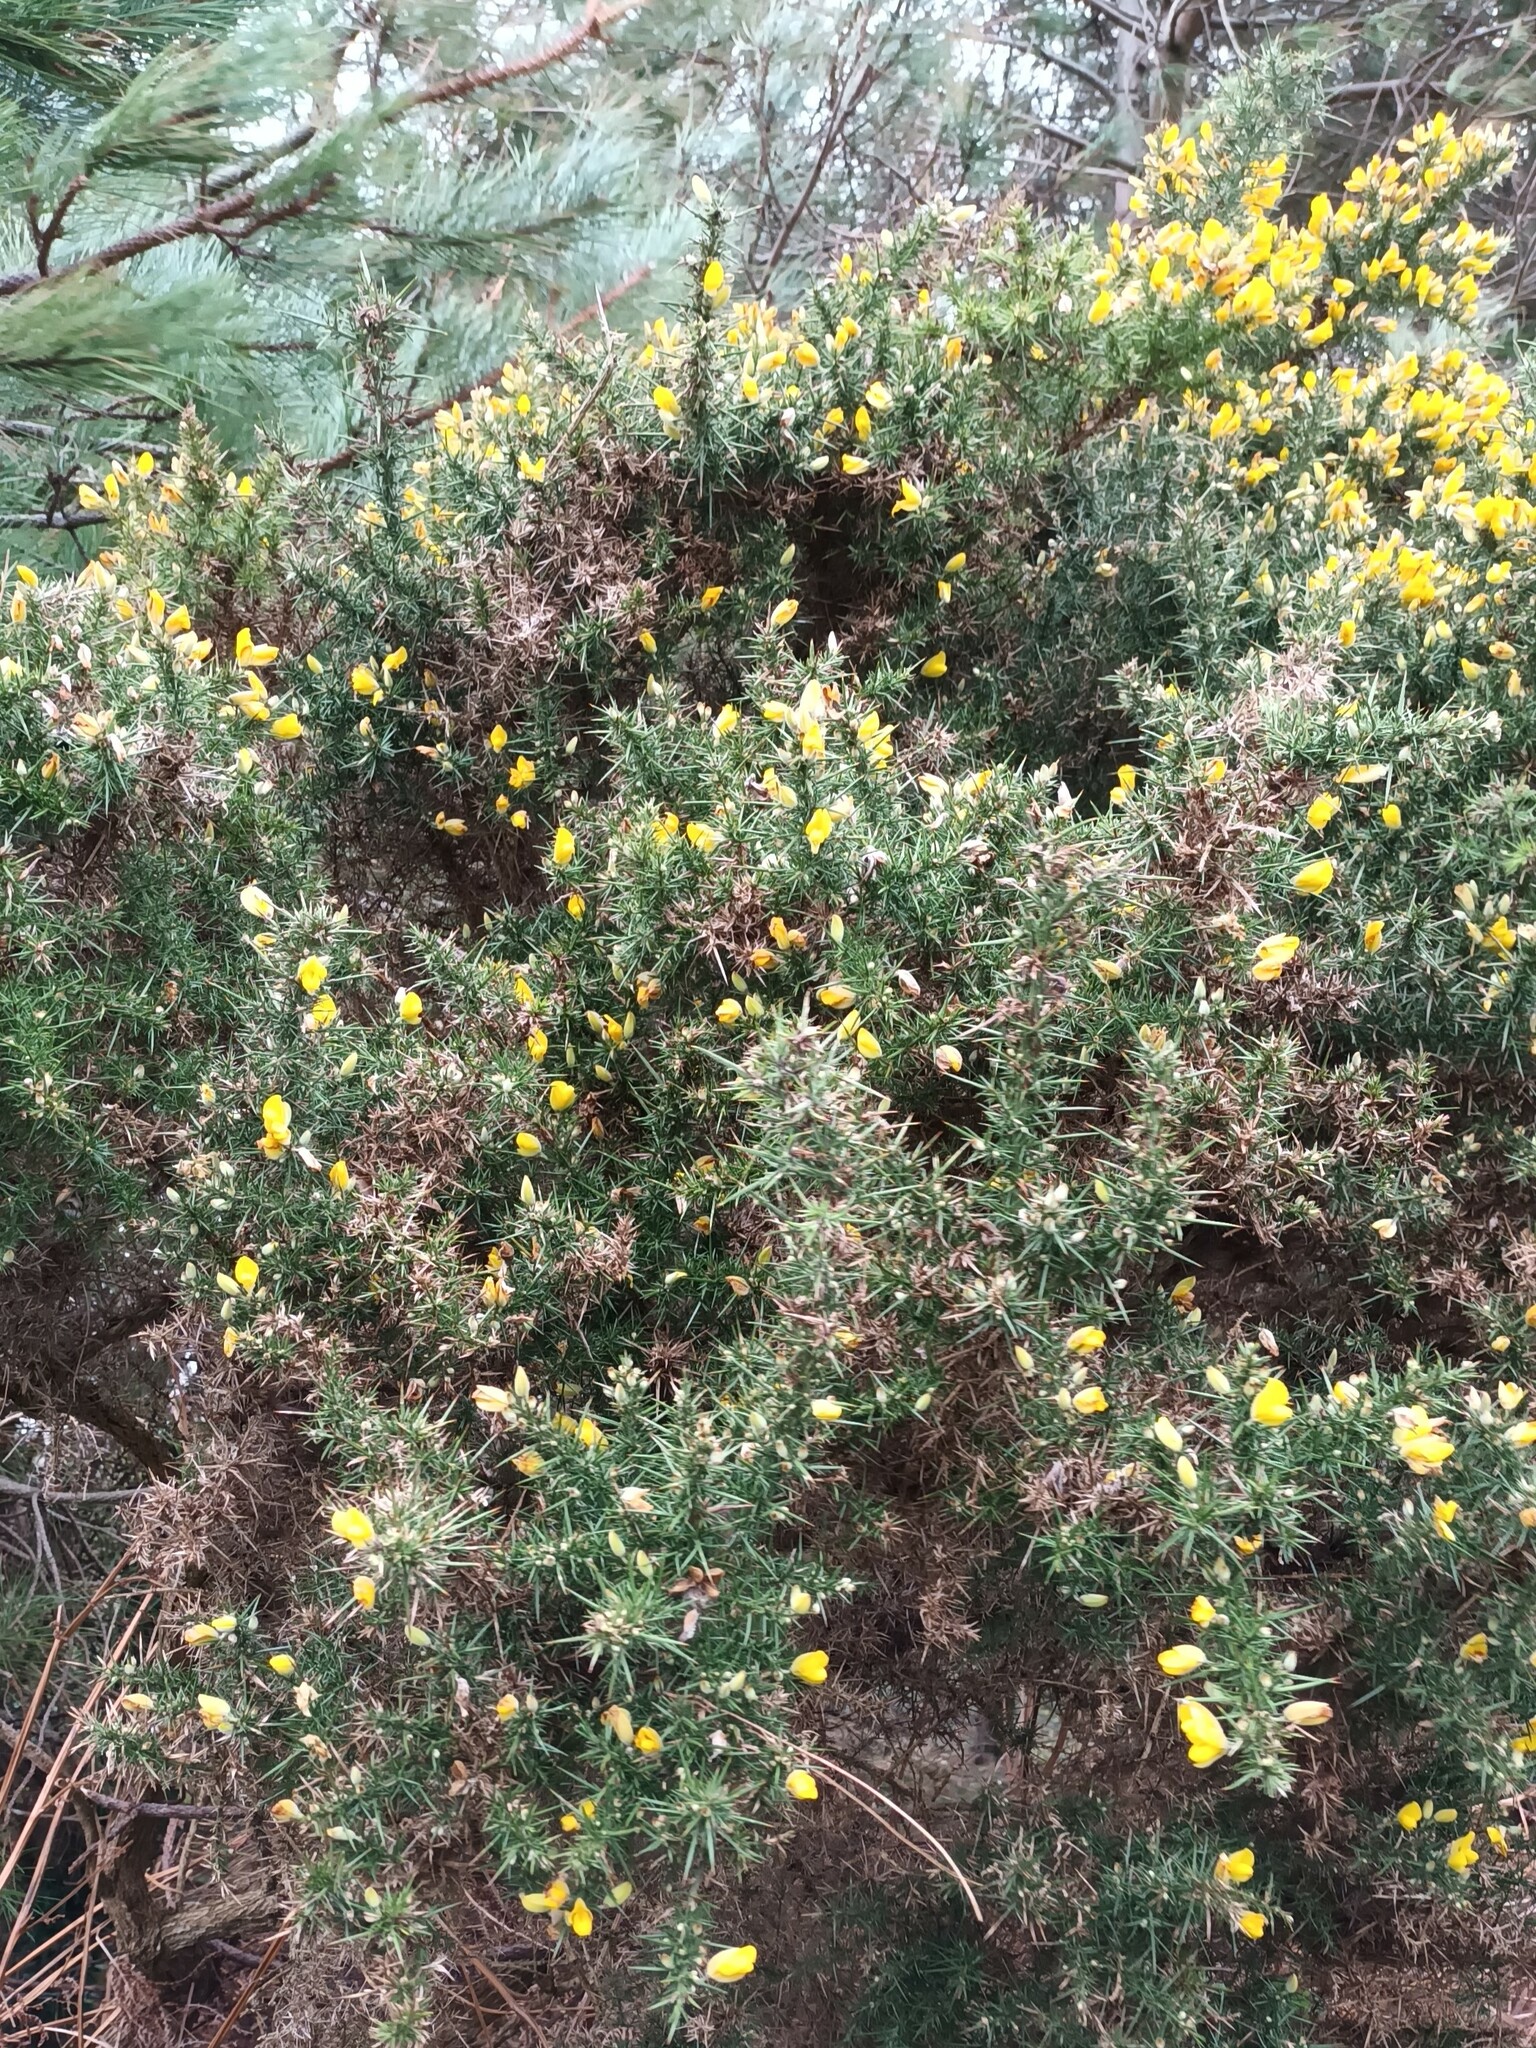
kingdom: Plantae
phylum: Tracheophyta
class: Magnoliopsida
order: Fabales
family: Fabaceae
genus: Ulex
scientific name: Ulex europaeus
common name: Common gorse
